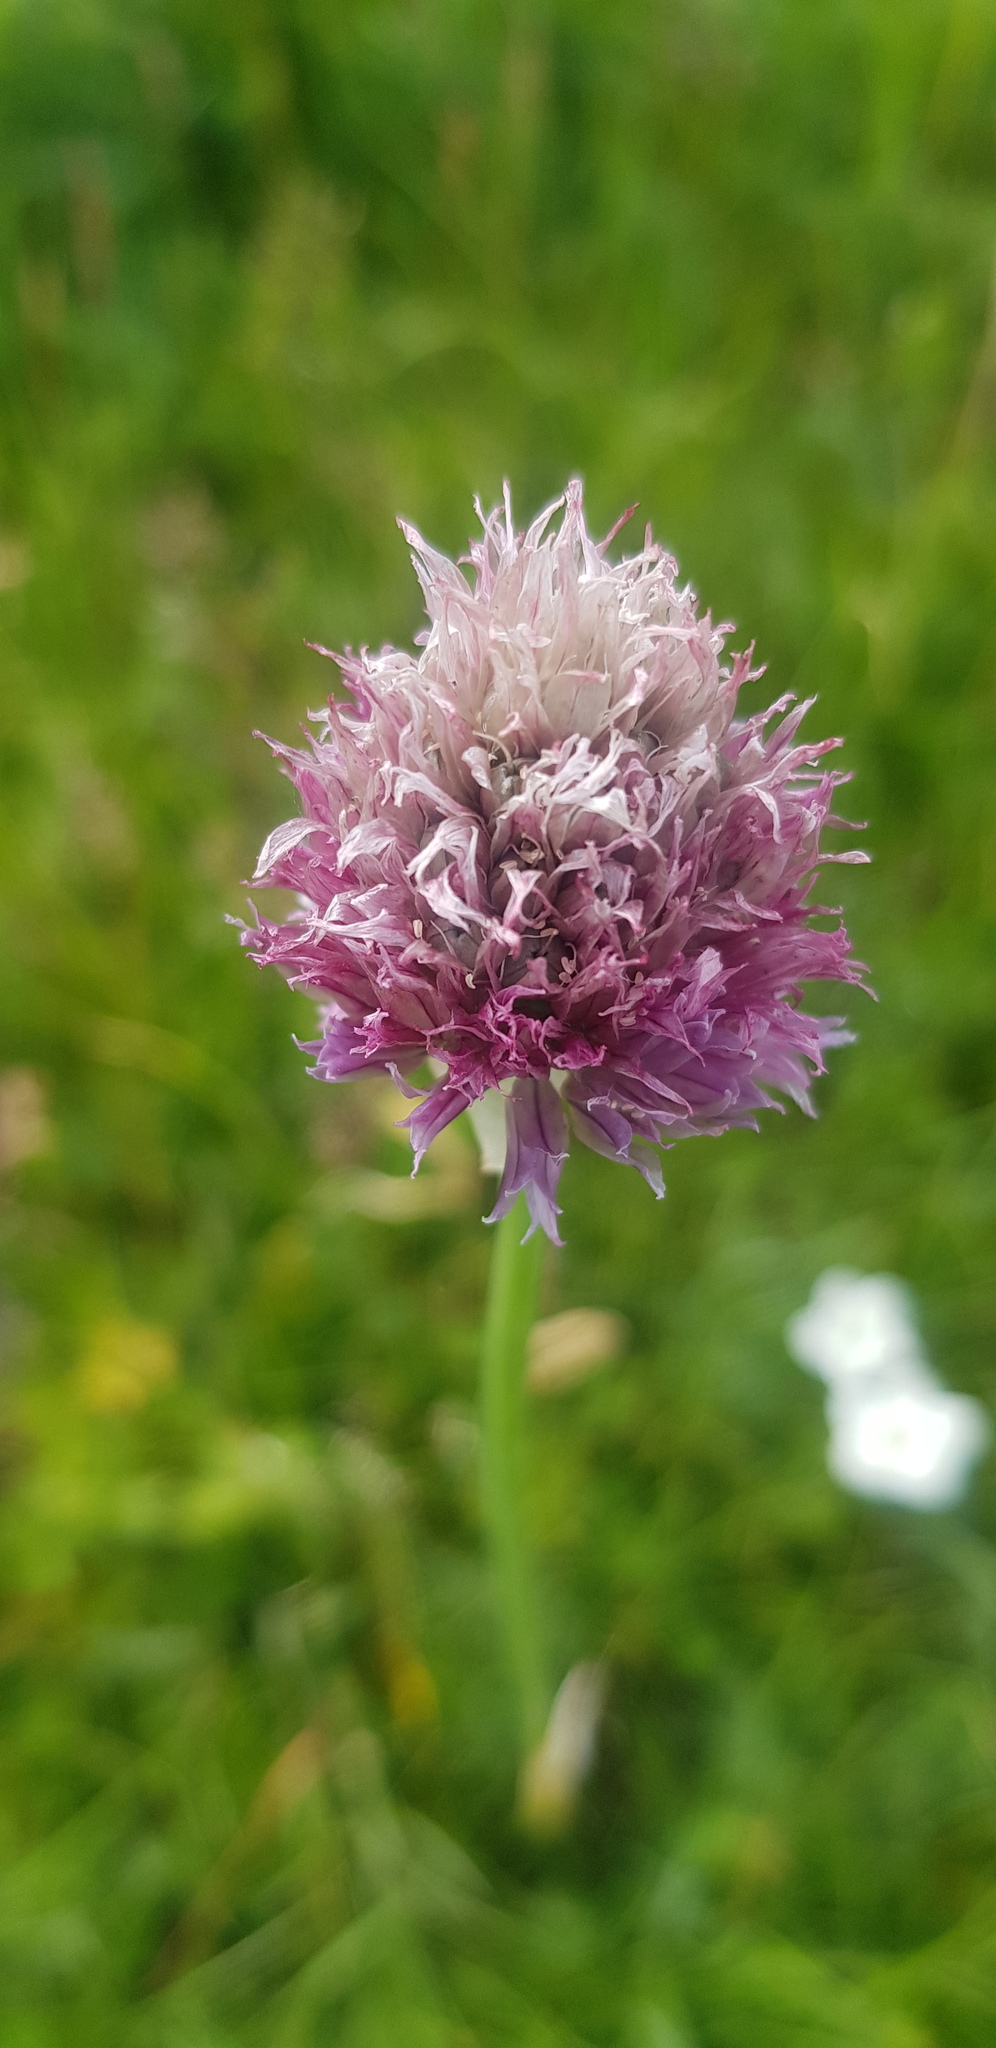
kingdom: Plantae
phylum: Tracheophyta
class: Liliopsida
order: Asparagales
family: Amaryllidaceae
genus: Allium
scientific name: Allium schoenoprasum
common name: Chives
